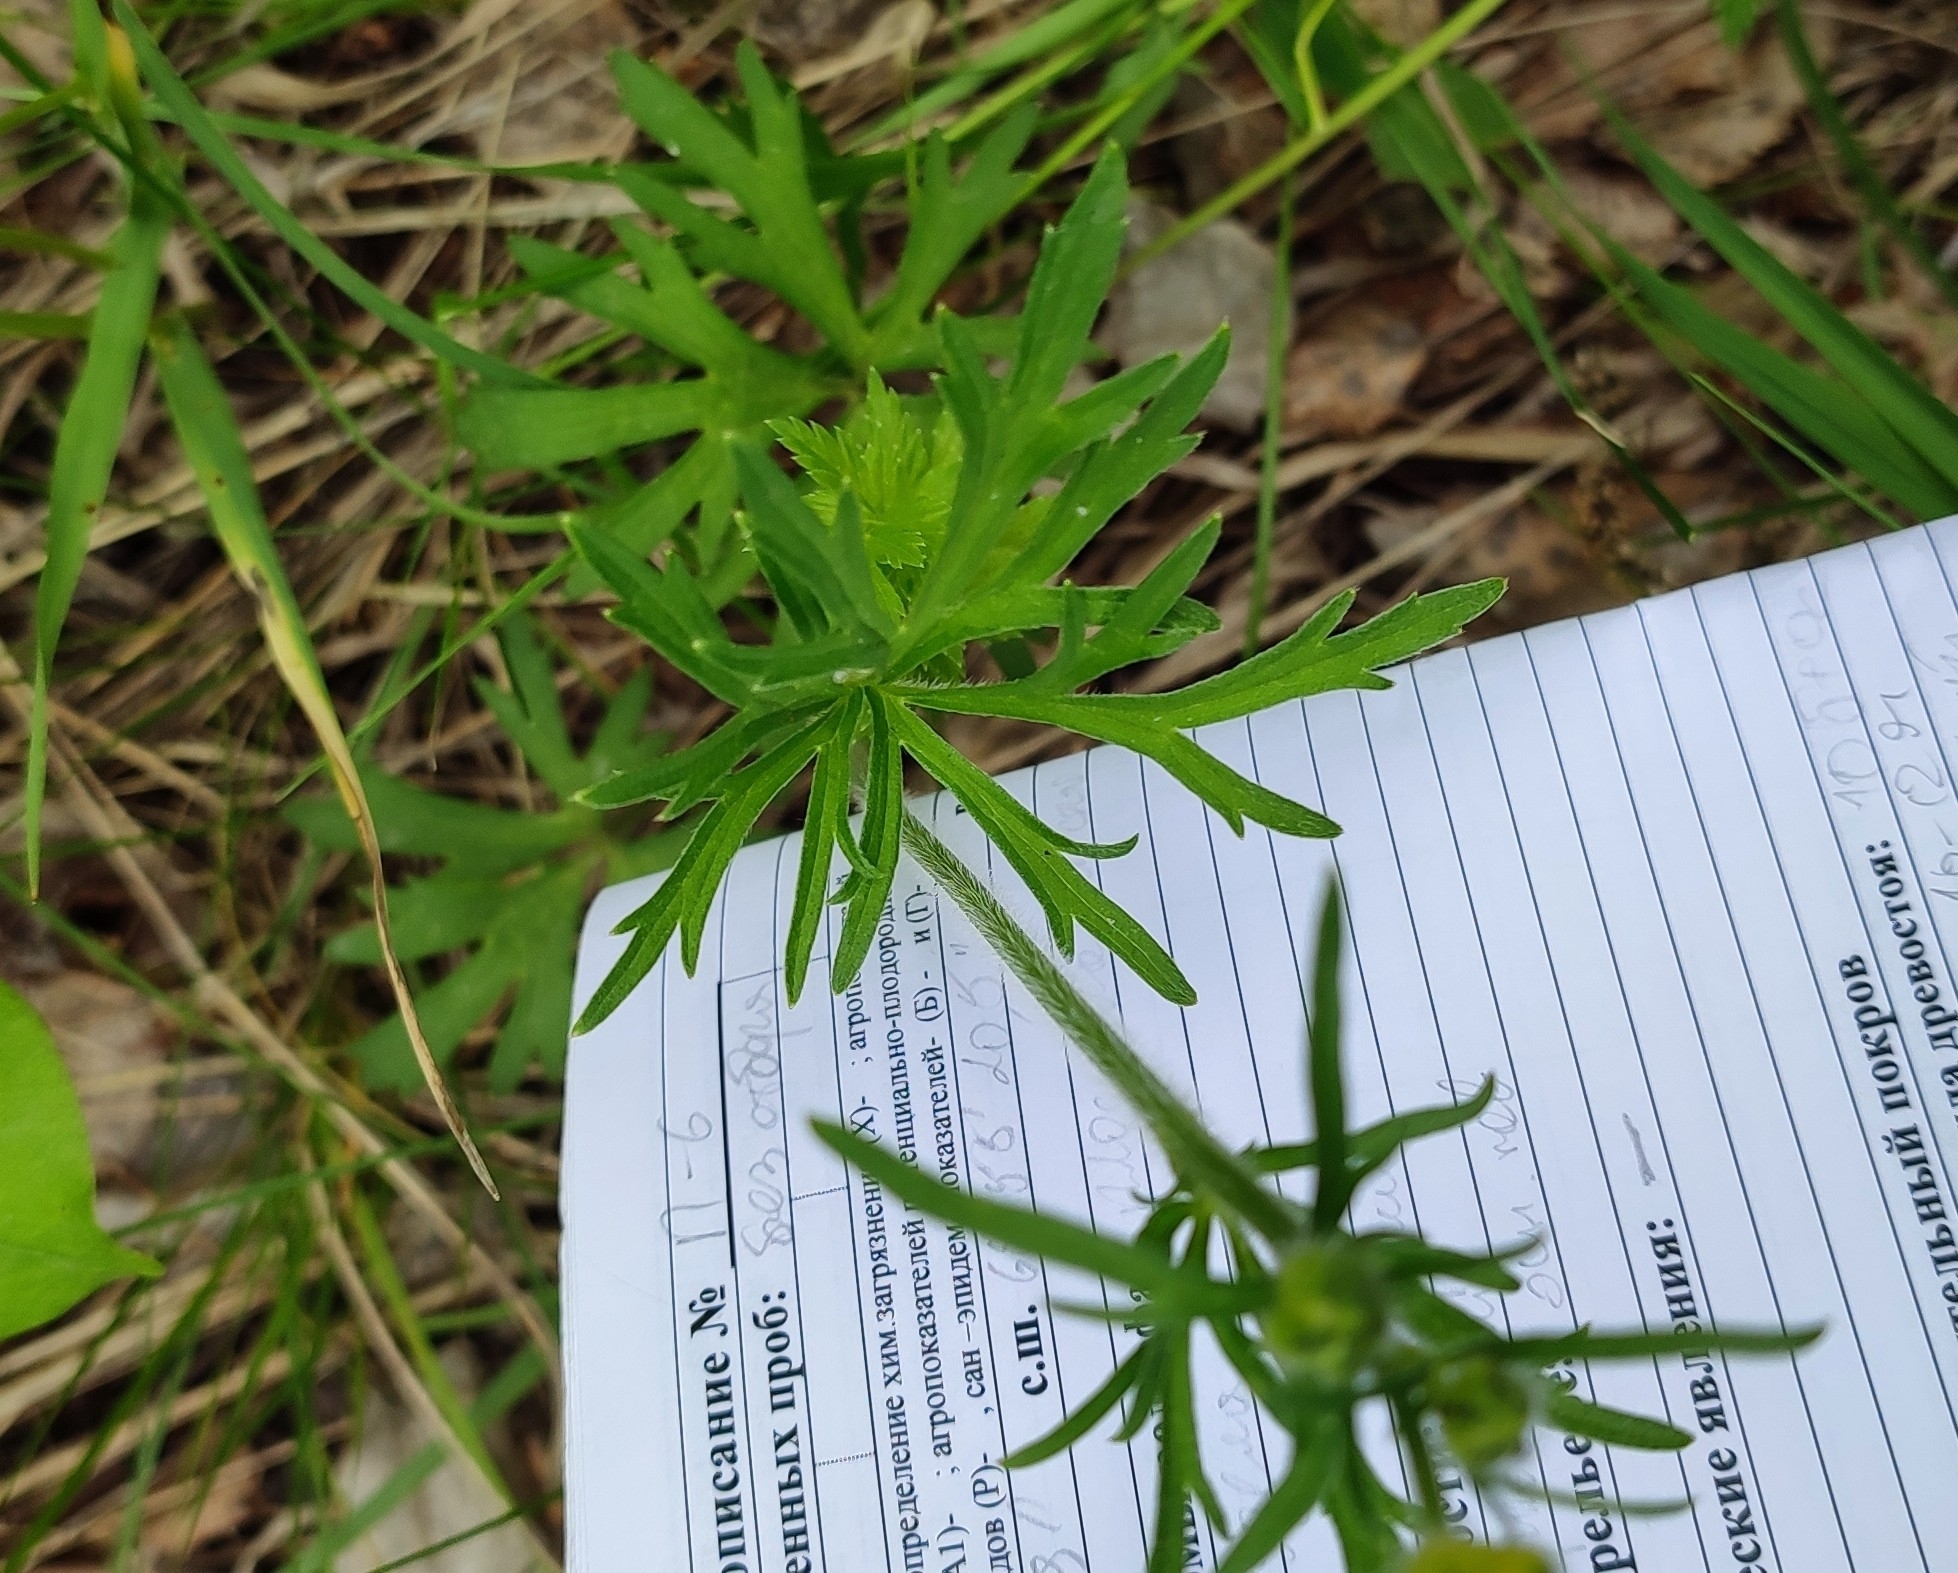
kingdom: Plantae
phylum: Tracheophyta
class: Magnoliopsida
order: Ranunculales
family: Ranunculaceae
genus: Ranunculus
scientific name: Ranunculus polyanthemos
